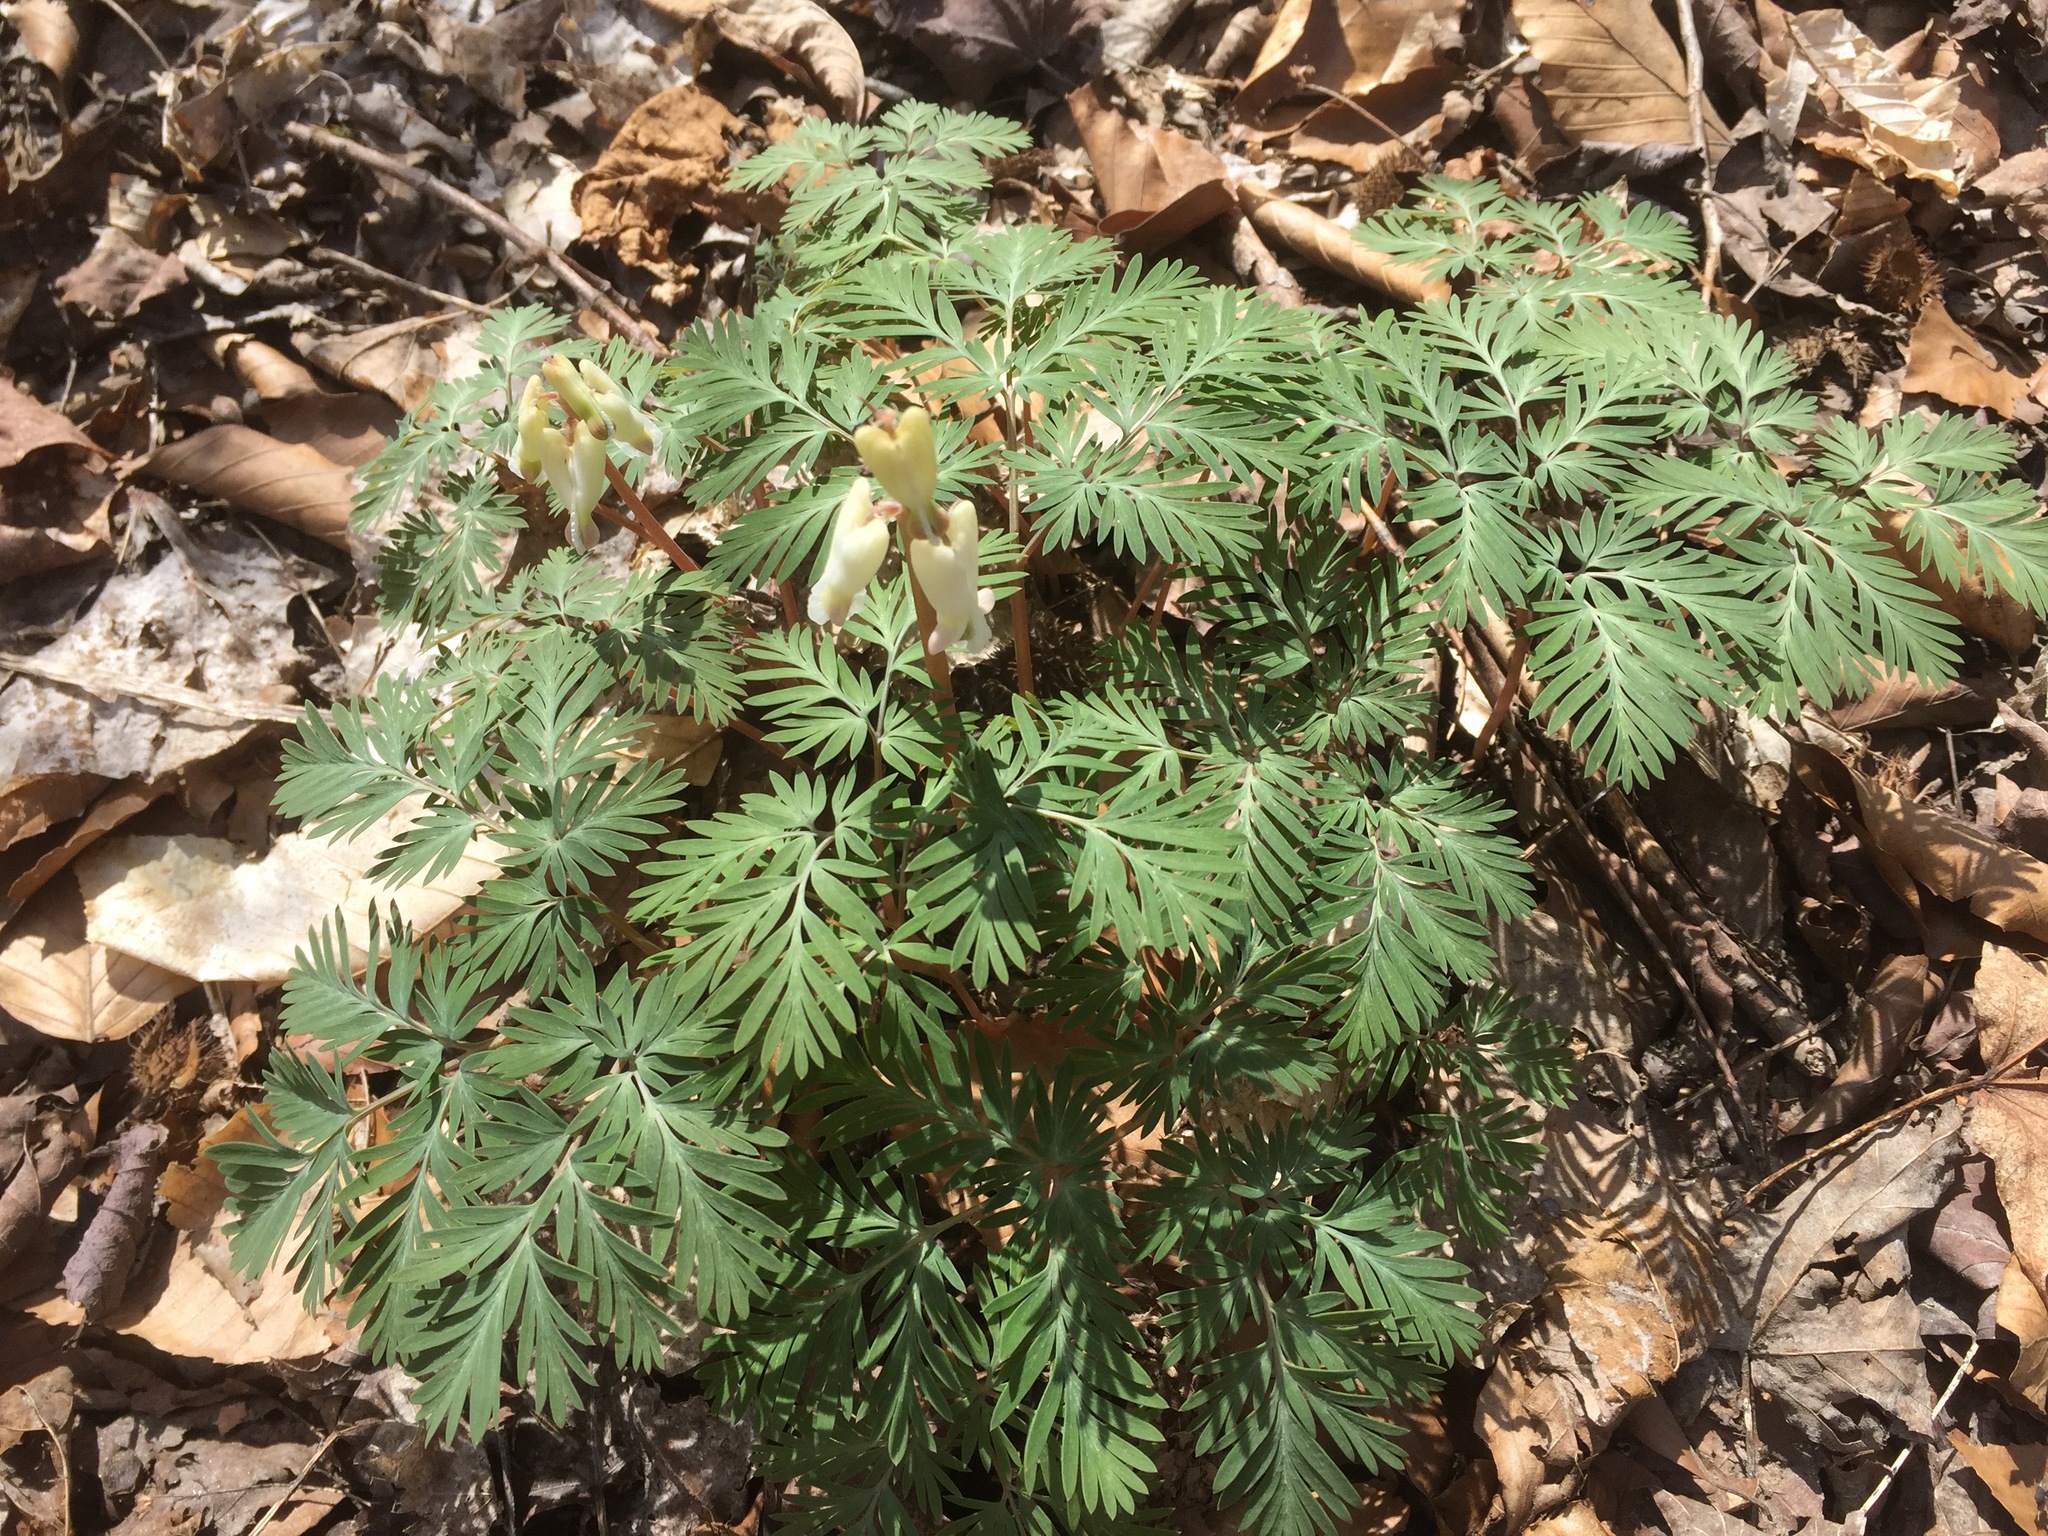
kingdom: Plantae
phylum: Tracheophyta
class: Magnoliopsida
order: Ranunculales
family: Papaveraceae
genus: Dicentra
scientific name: Dicentra canadensis
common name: Squirrel-corn
